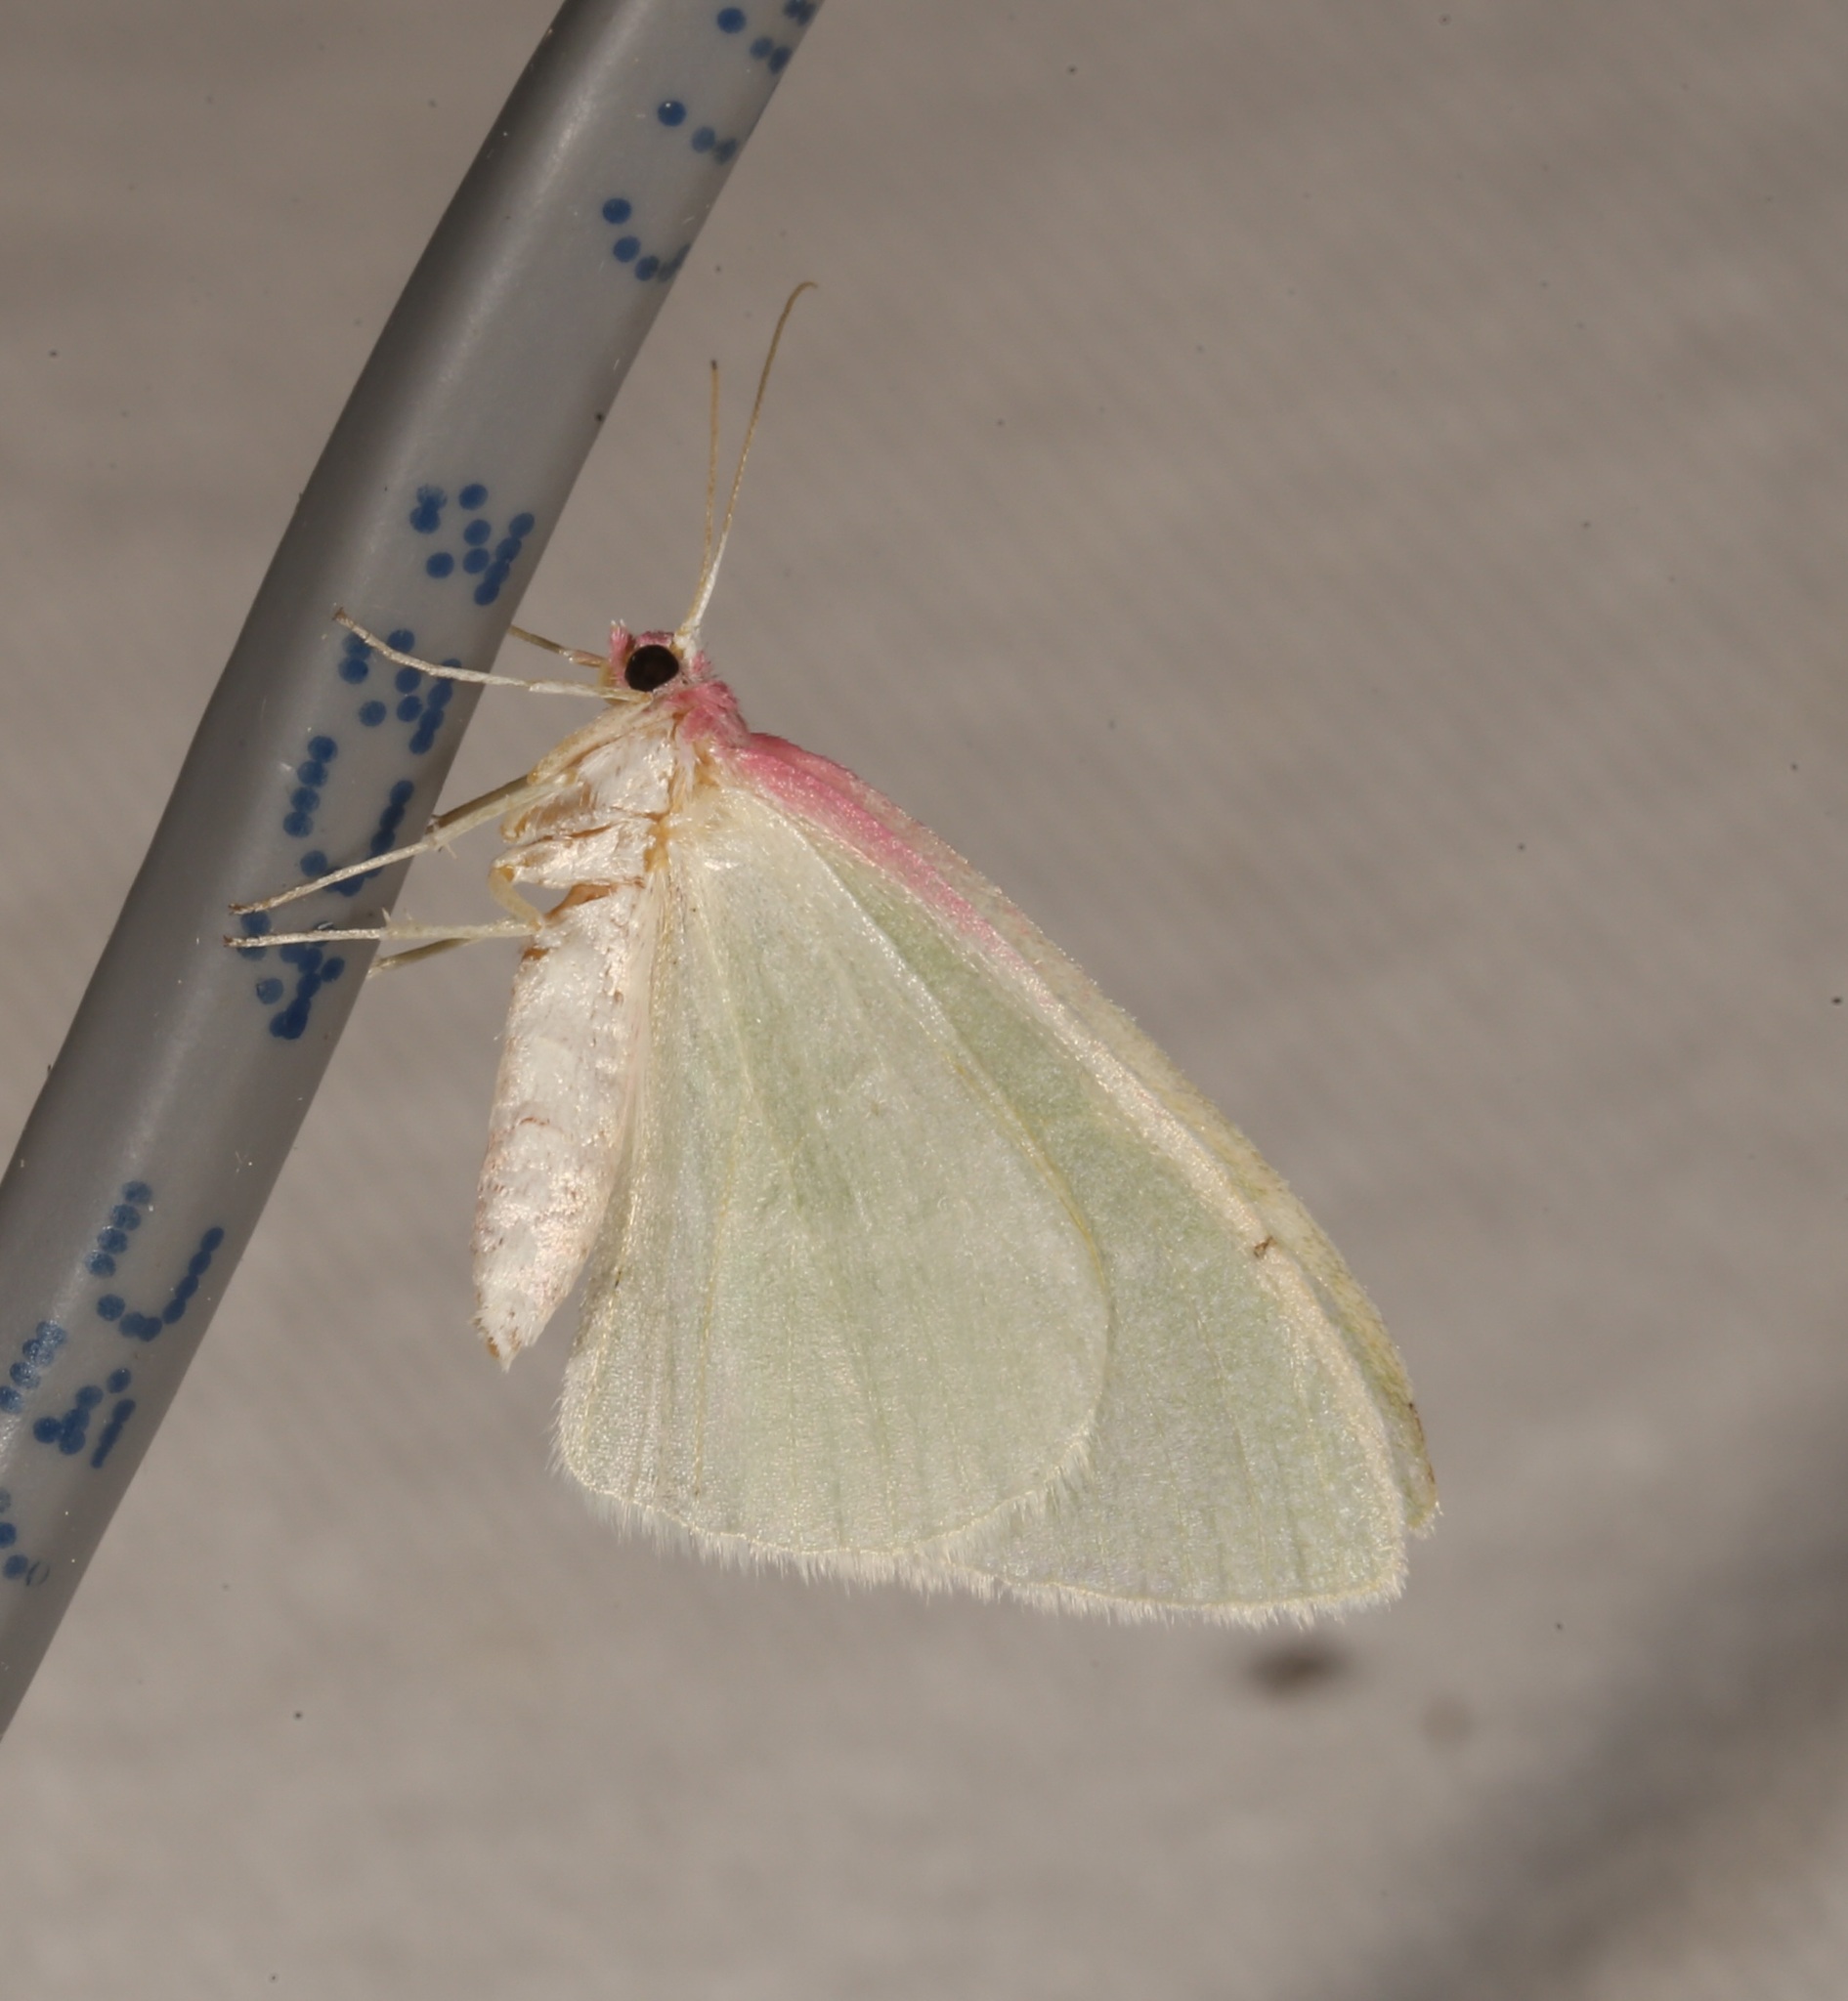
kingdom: Animalia
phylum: Arthropoda
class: Insecta
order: Lepidoptera
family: Geometridae
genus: Nemoria
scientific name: Nemoria latirosaria
